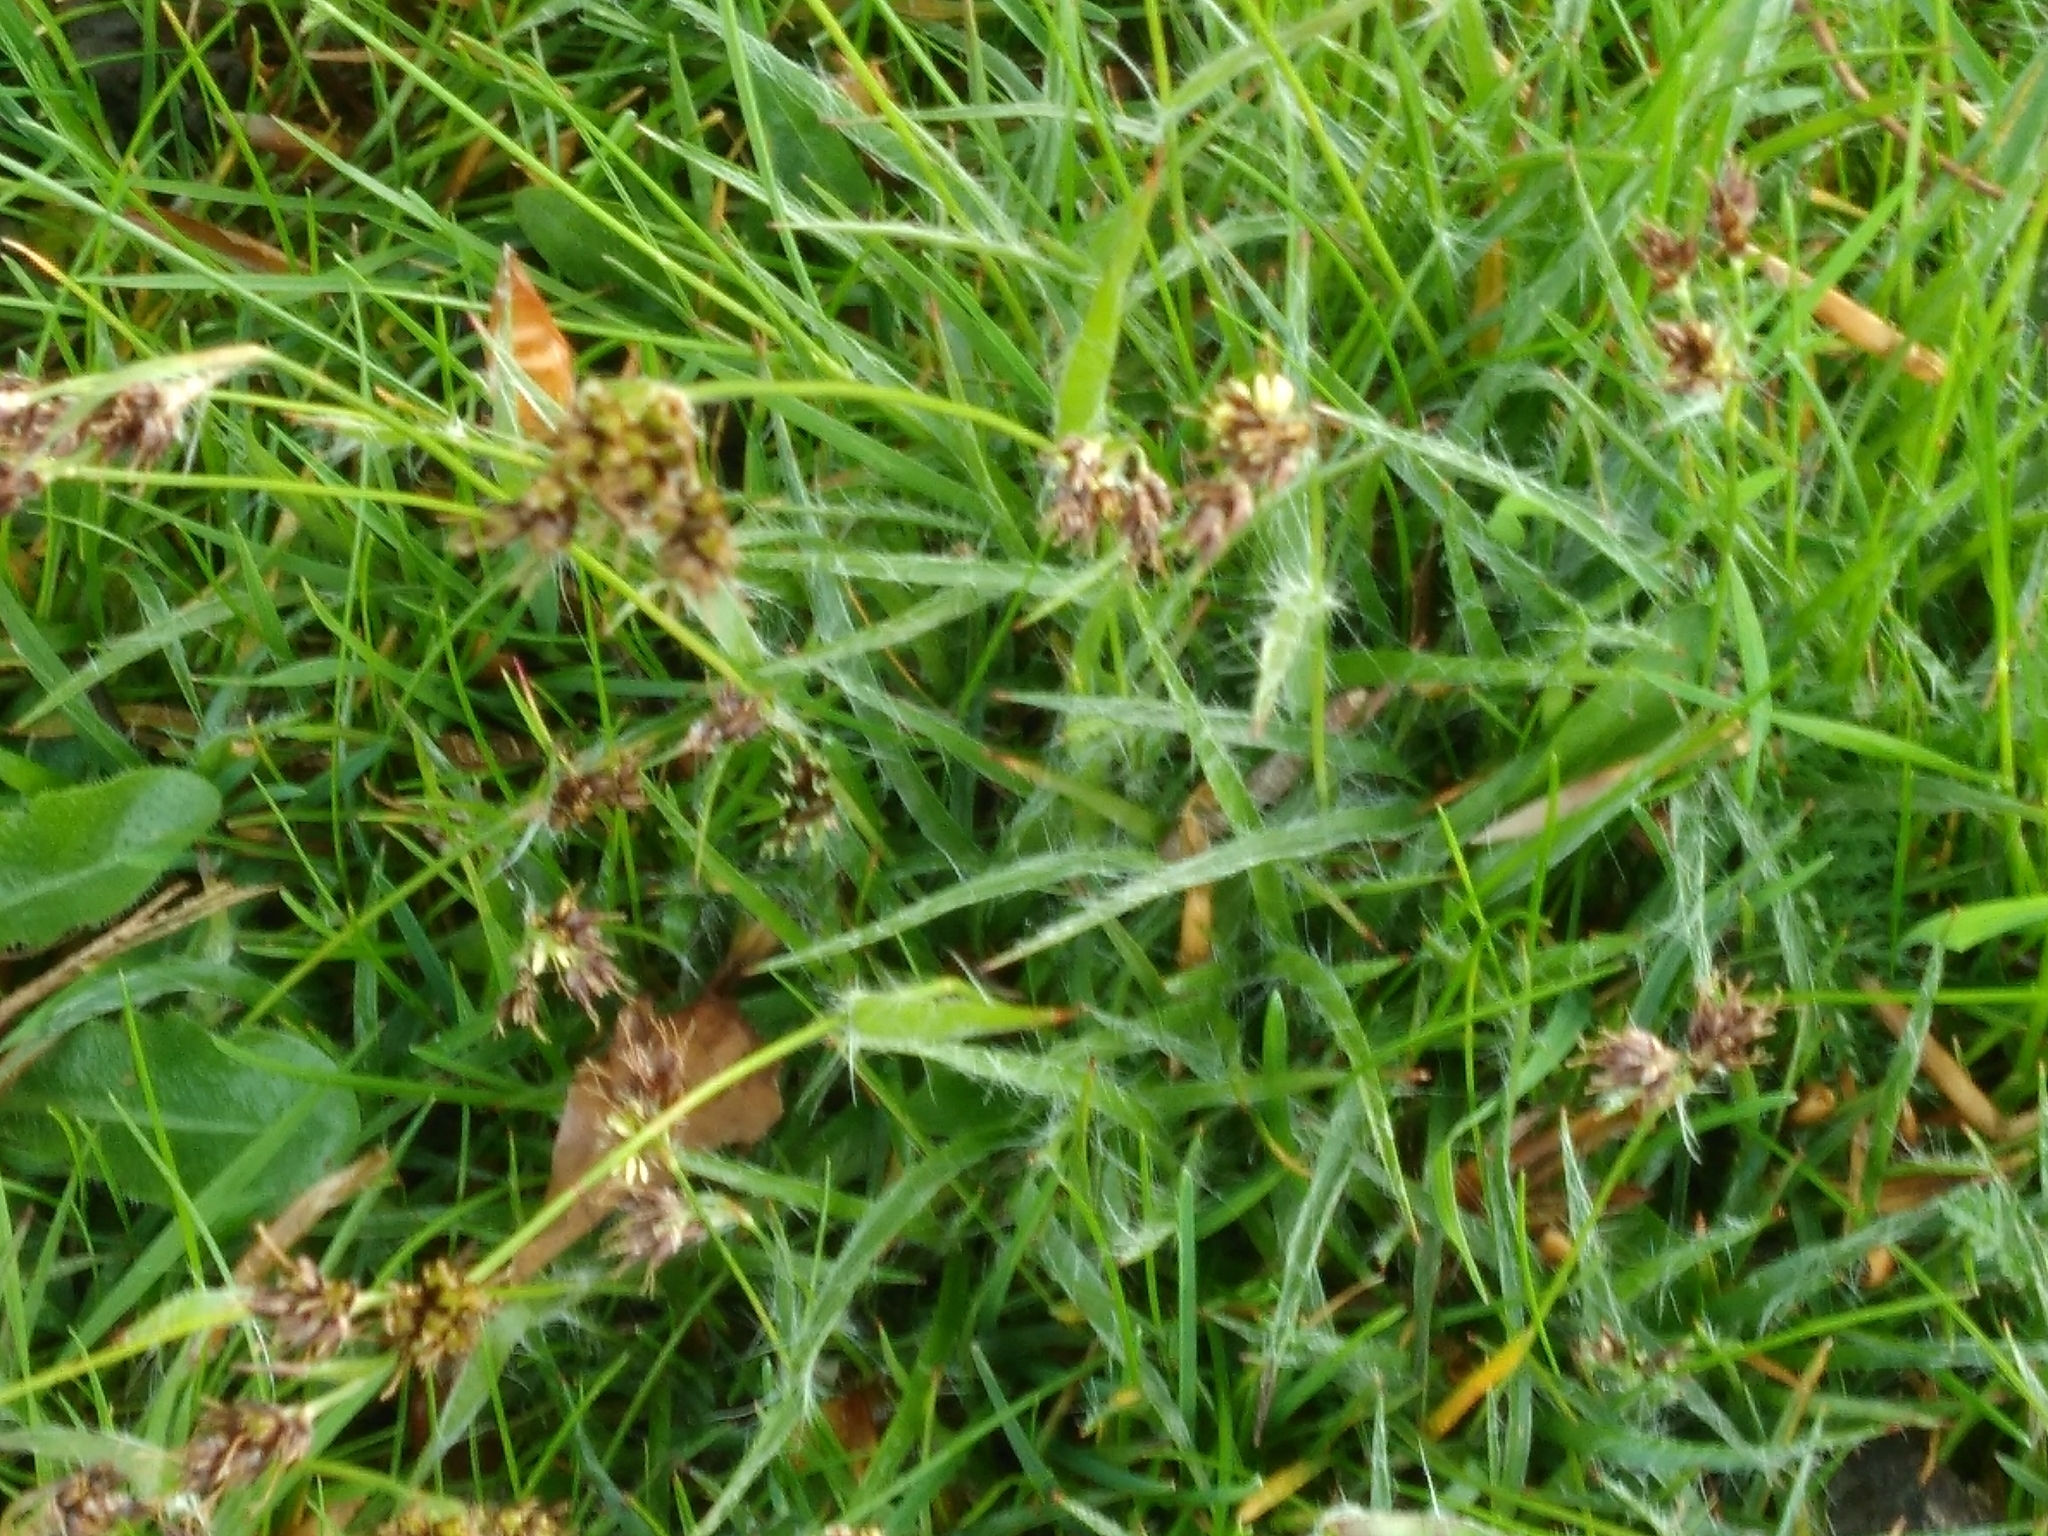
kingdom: Plantae
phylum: Tracheophyta
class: Liliopsida
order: Poales
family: Juncaceae
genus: Luzula
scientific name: Luzula campestris
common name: Field wood-rush
